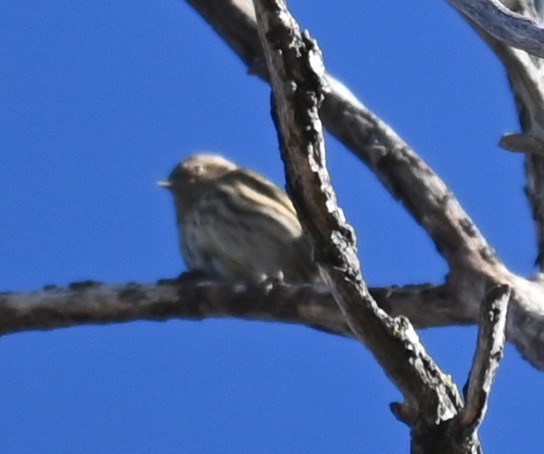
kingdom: Animalia
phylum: Chordata
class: Aves
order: Passeriformes
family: Fringillidae
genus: Spinus
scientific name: Spinus pinus
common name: Pine siskin
